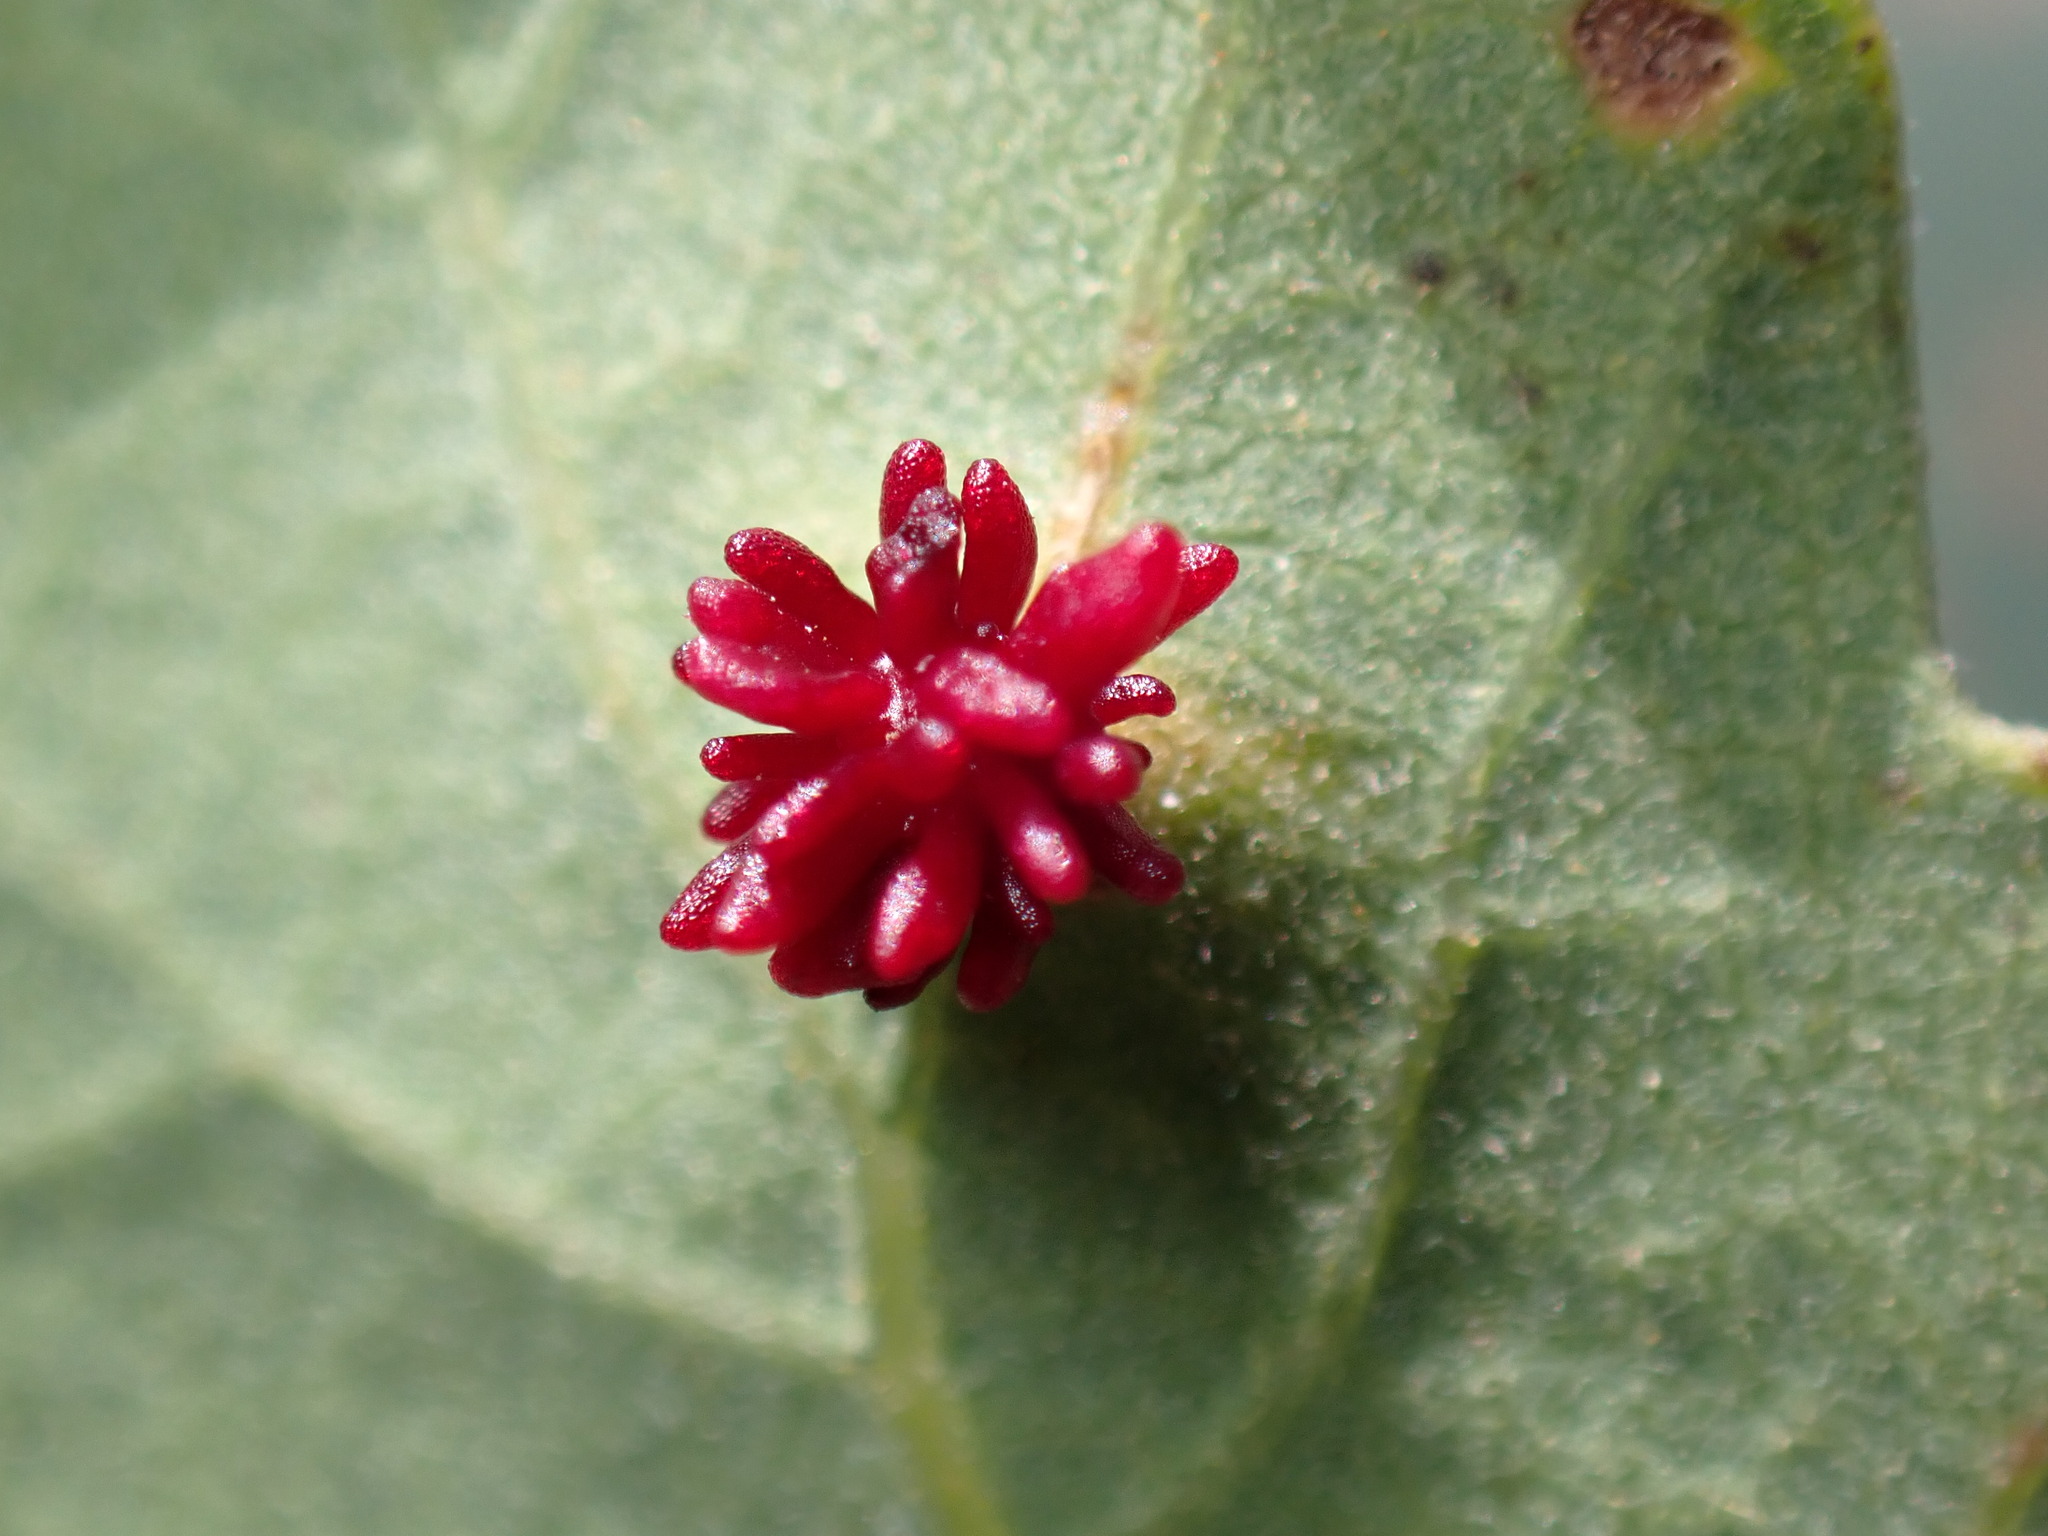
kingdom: Animalia
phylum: Arthropoda
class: Insecta
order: Hymenoptera
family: Cynipidae
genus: Cynips
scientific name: Cynips
